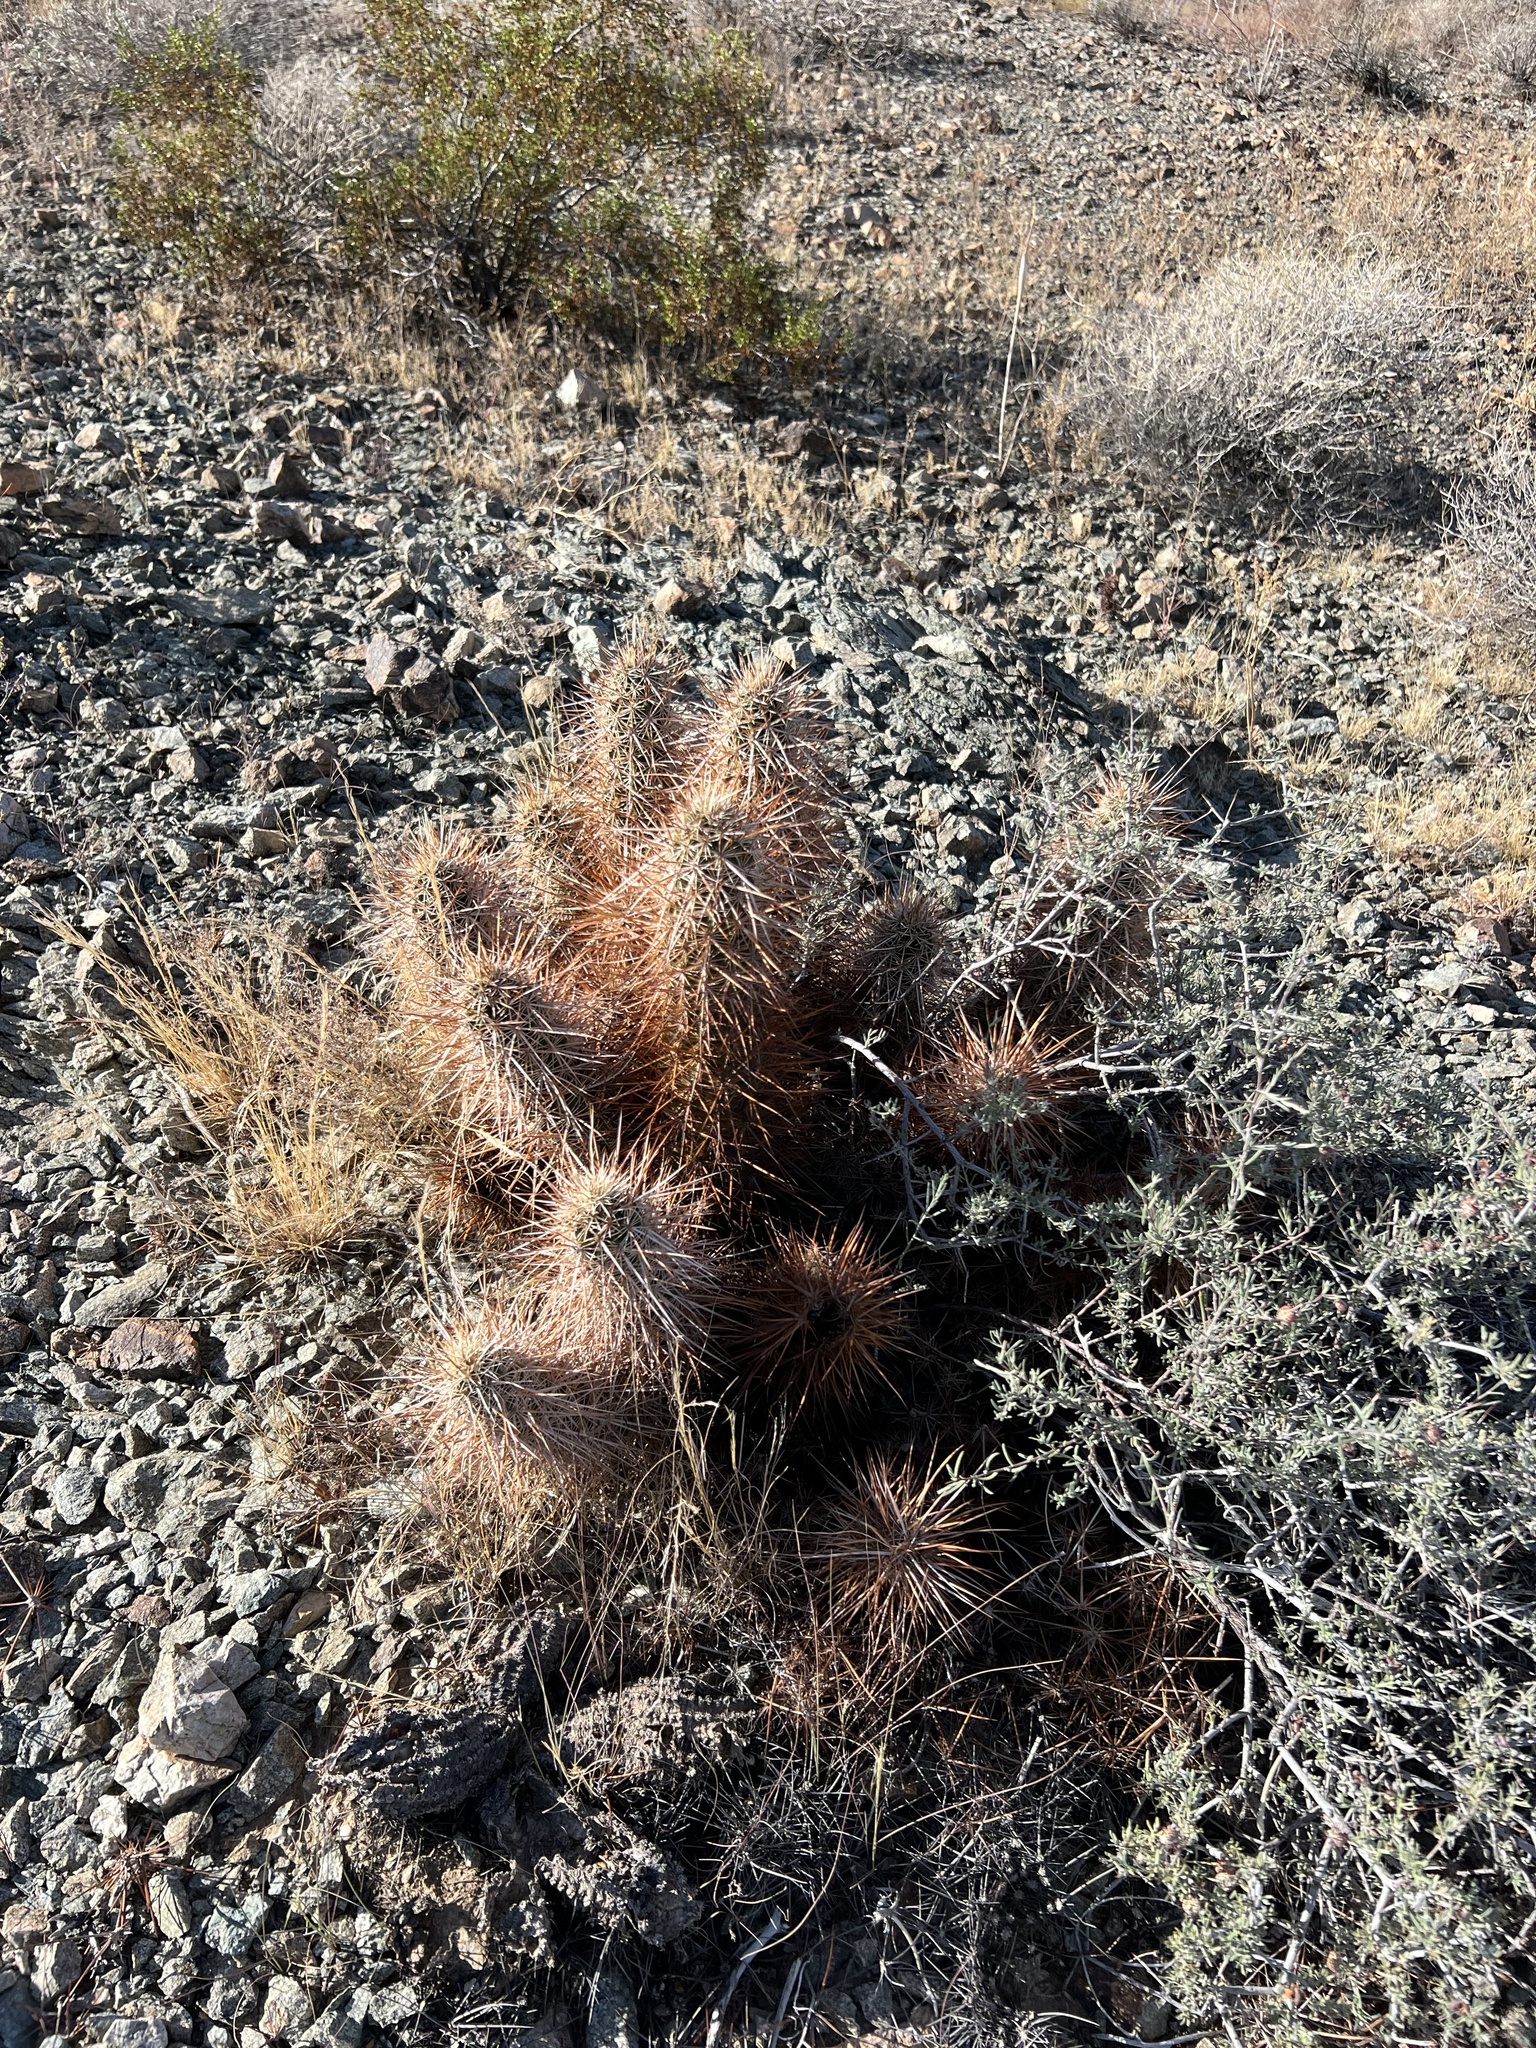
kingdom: Plantae
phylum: Tracheophyta
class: Magnoliopsida
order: Caryophyllales
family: Cactaceae
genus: Echinocereus
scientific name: Echinocereus engelmannii
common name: Engelmann's hedgehog cactus
